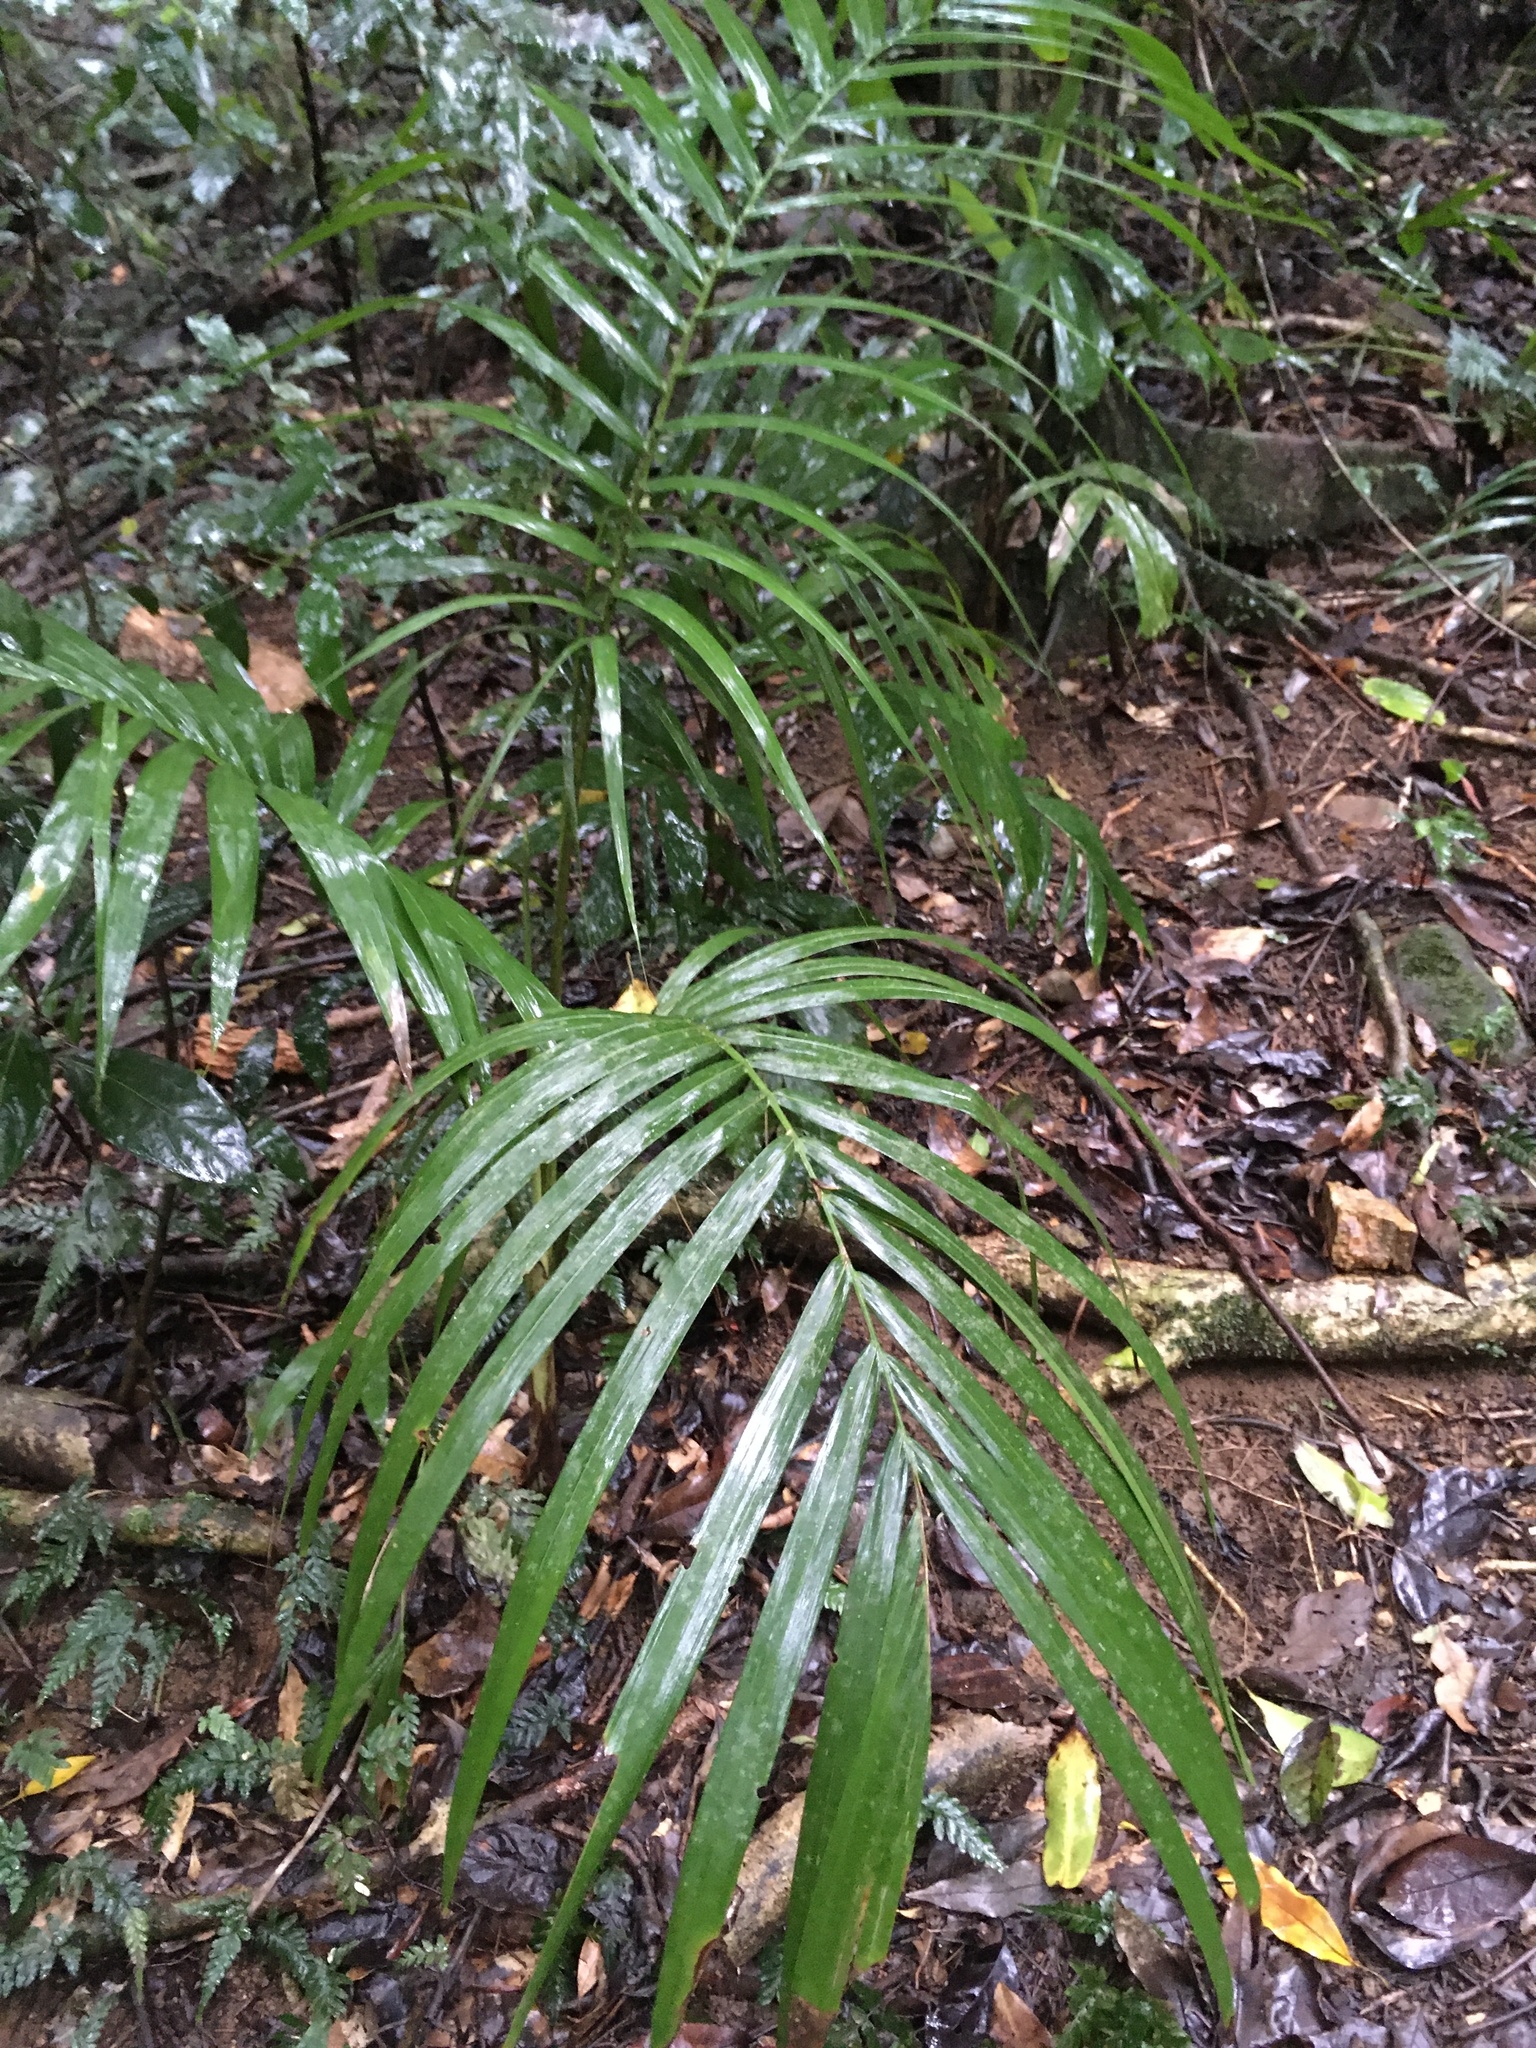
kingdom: Plantae
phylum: Tracheophyta
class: Liliopsida
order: Arecales
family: Arecaceae
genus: Archontophoenix
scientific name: Archontophoenix cunninghamiana
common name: Piccabeen bangalow palm
